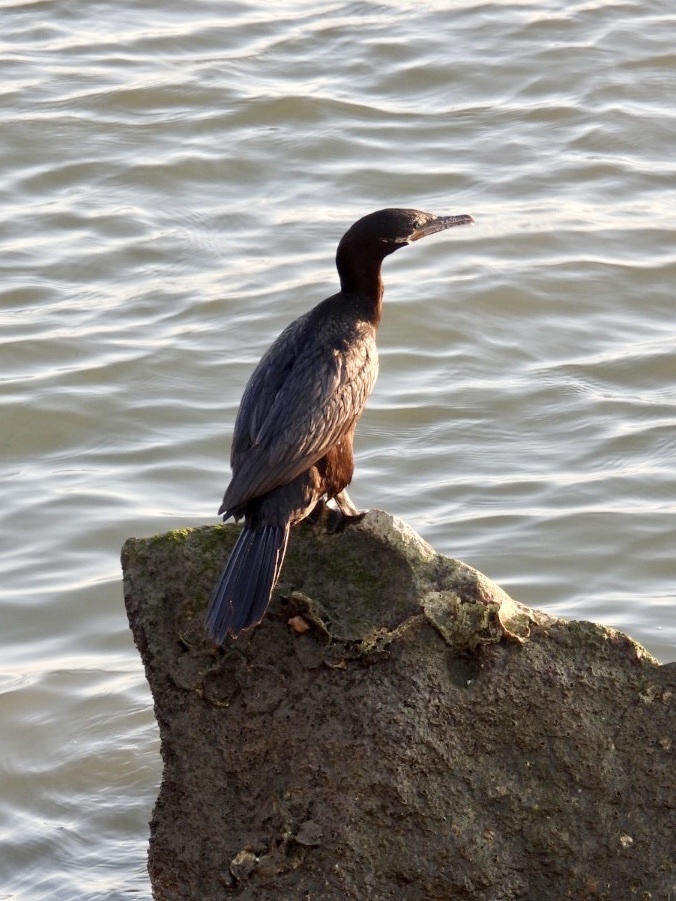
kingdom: Animalia
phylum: Chordata
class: Aves
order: Suliformes
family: Phalacrocoracidae
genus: Phalacrocorax
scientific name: Phalacrocorax brasilianus
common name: Neotropic cormorant
